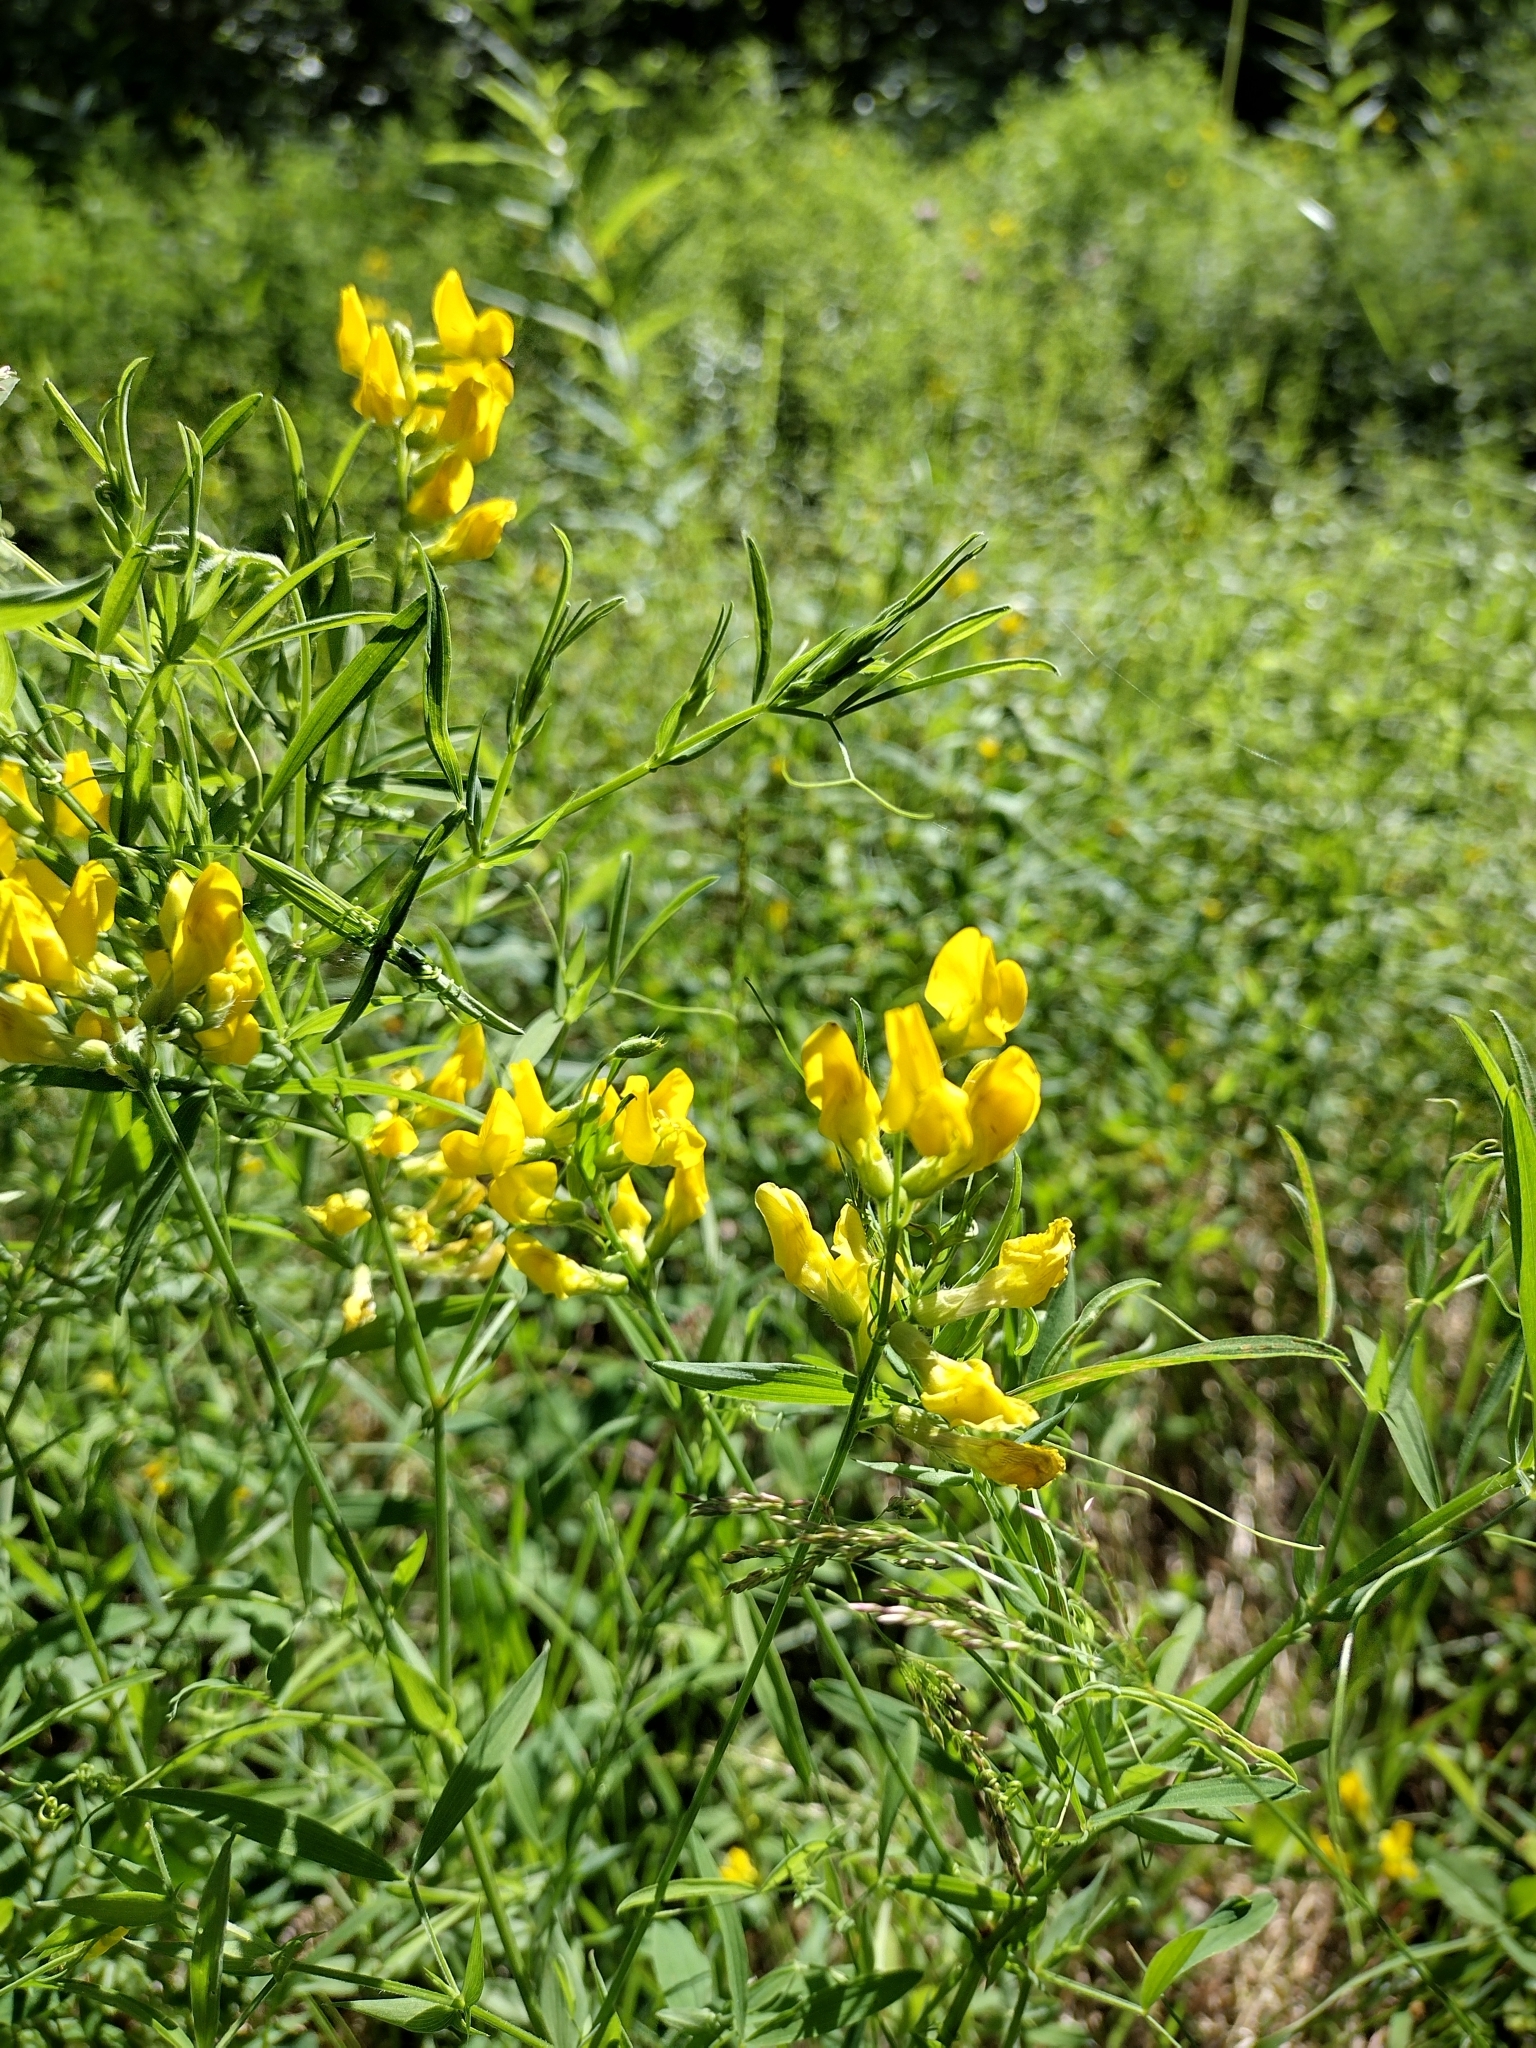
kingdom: Plantae
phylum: Tracheophyta
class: Magnoliopsida
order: Fabales
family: Fabaceae
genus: Lathyrus
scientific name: Lathyrus pratensis
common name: Meadow vetchling
